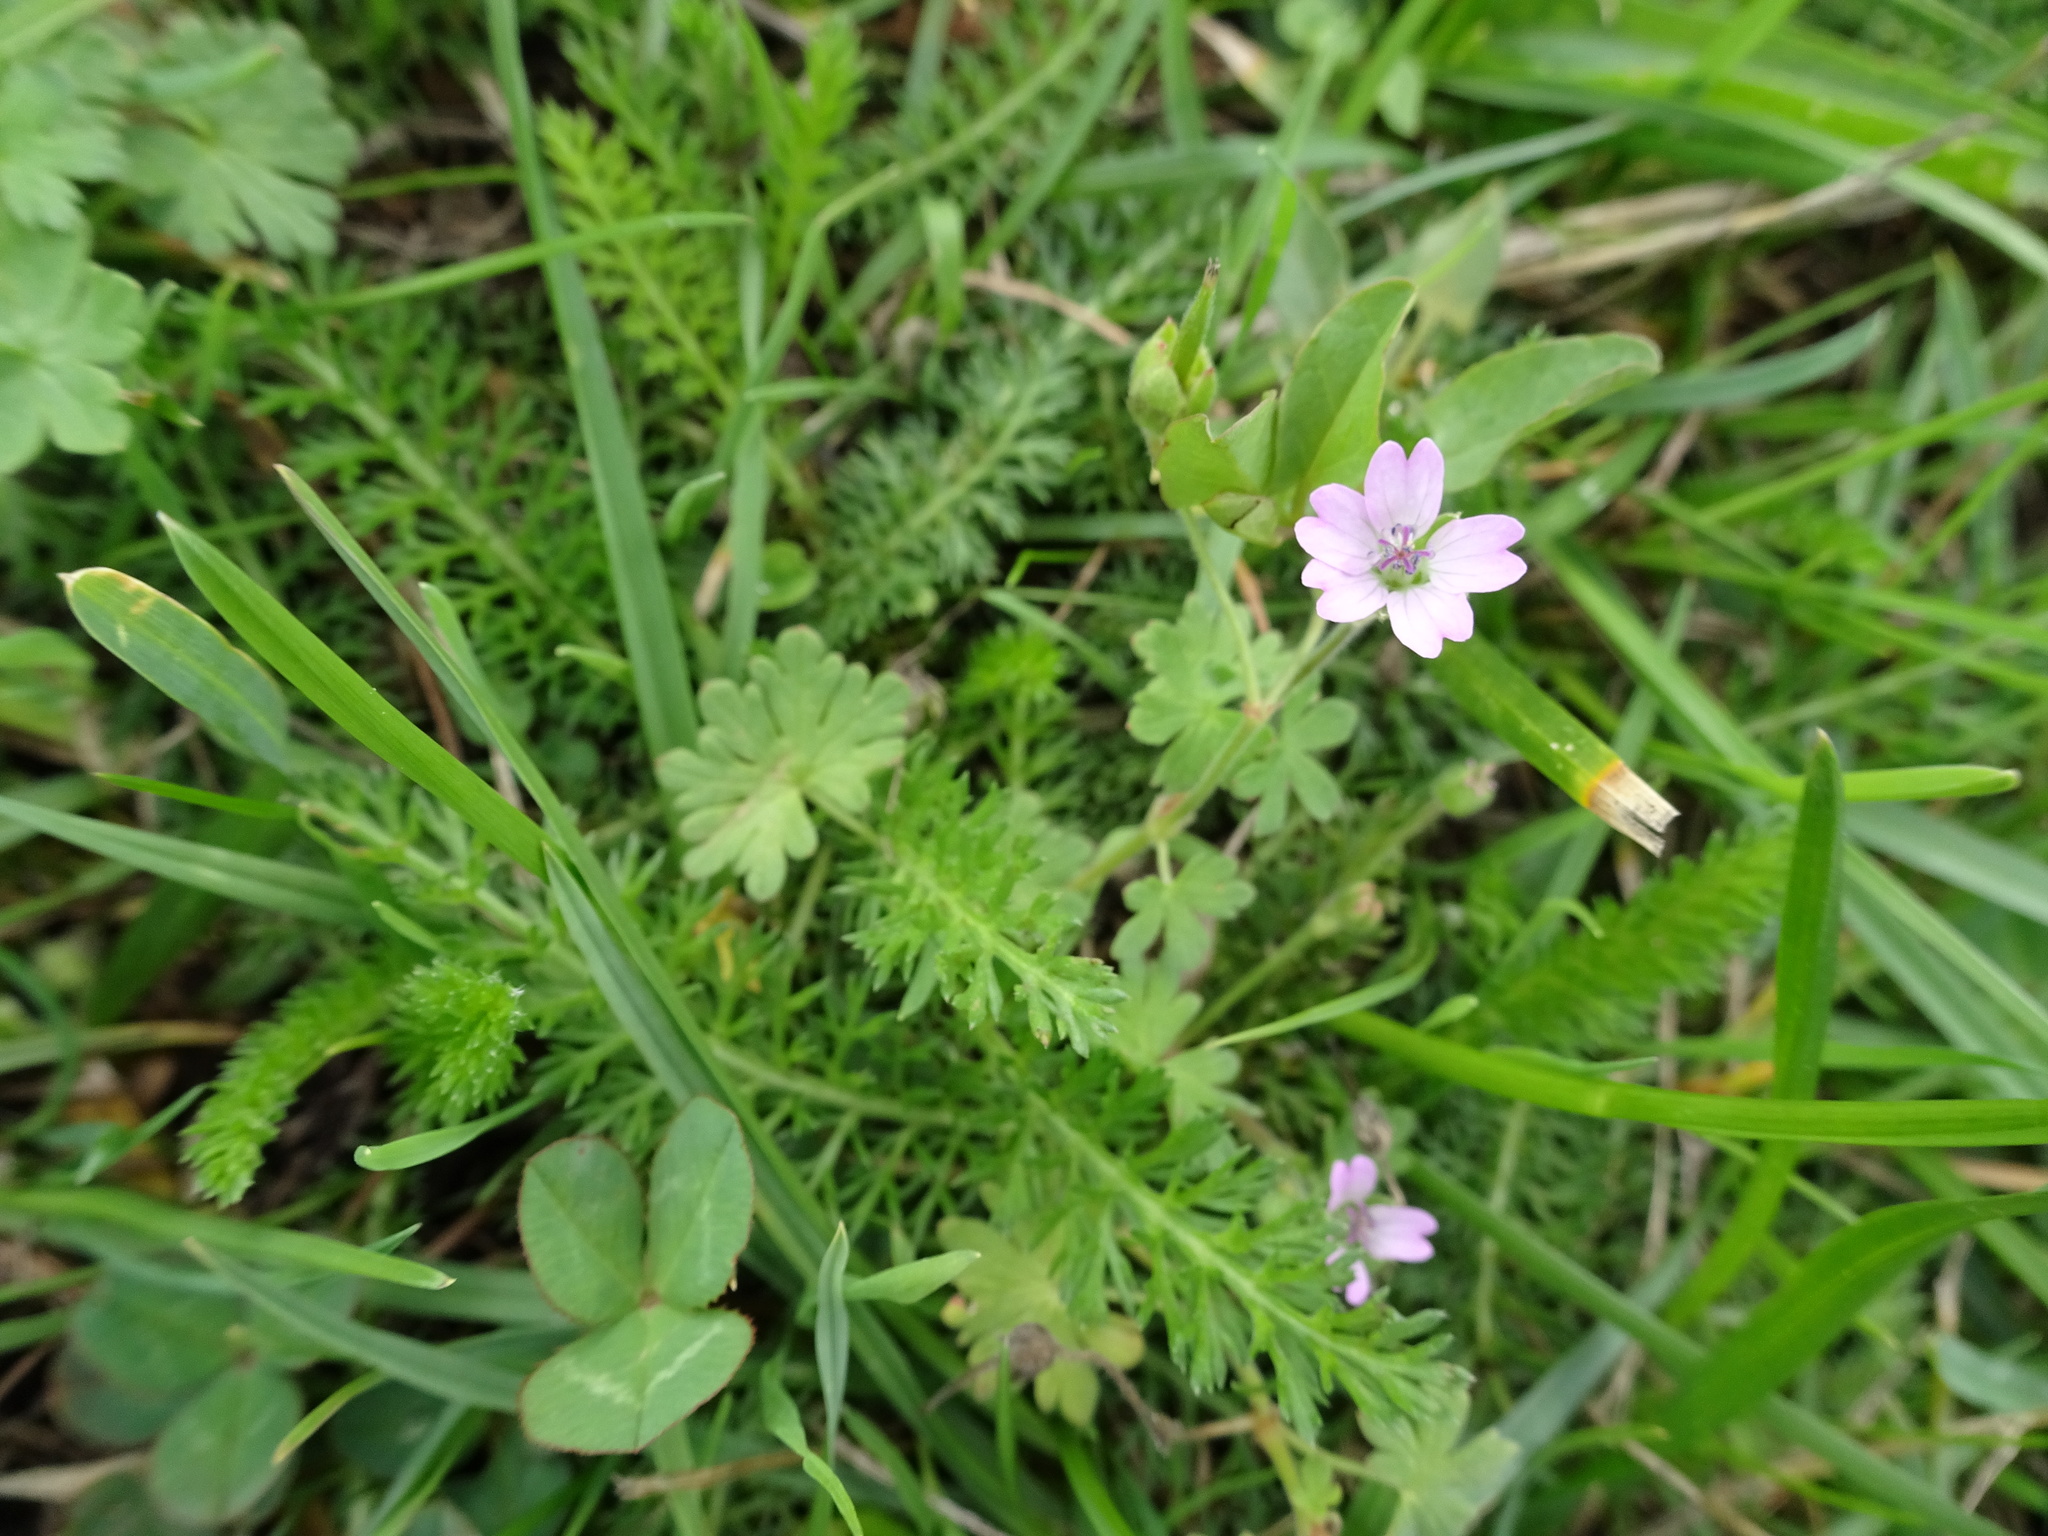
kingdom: Plantae
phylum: Tracheophyta
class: Magnoliopsida
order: Geraniales
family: Geraniaceae
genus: Geranium
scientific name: Geranium molle
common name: Dove's-foot crane's-bill
